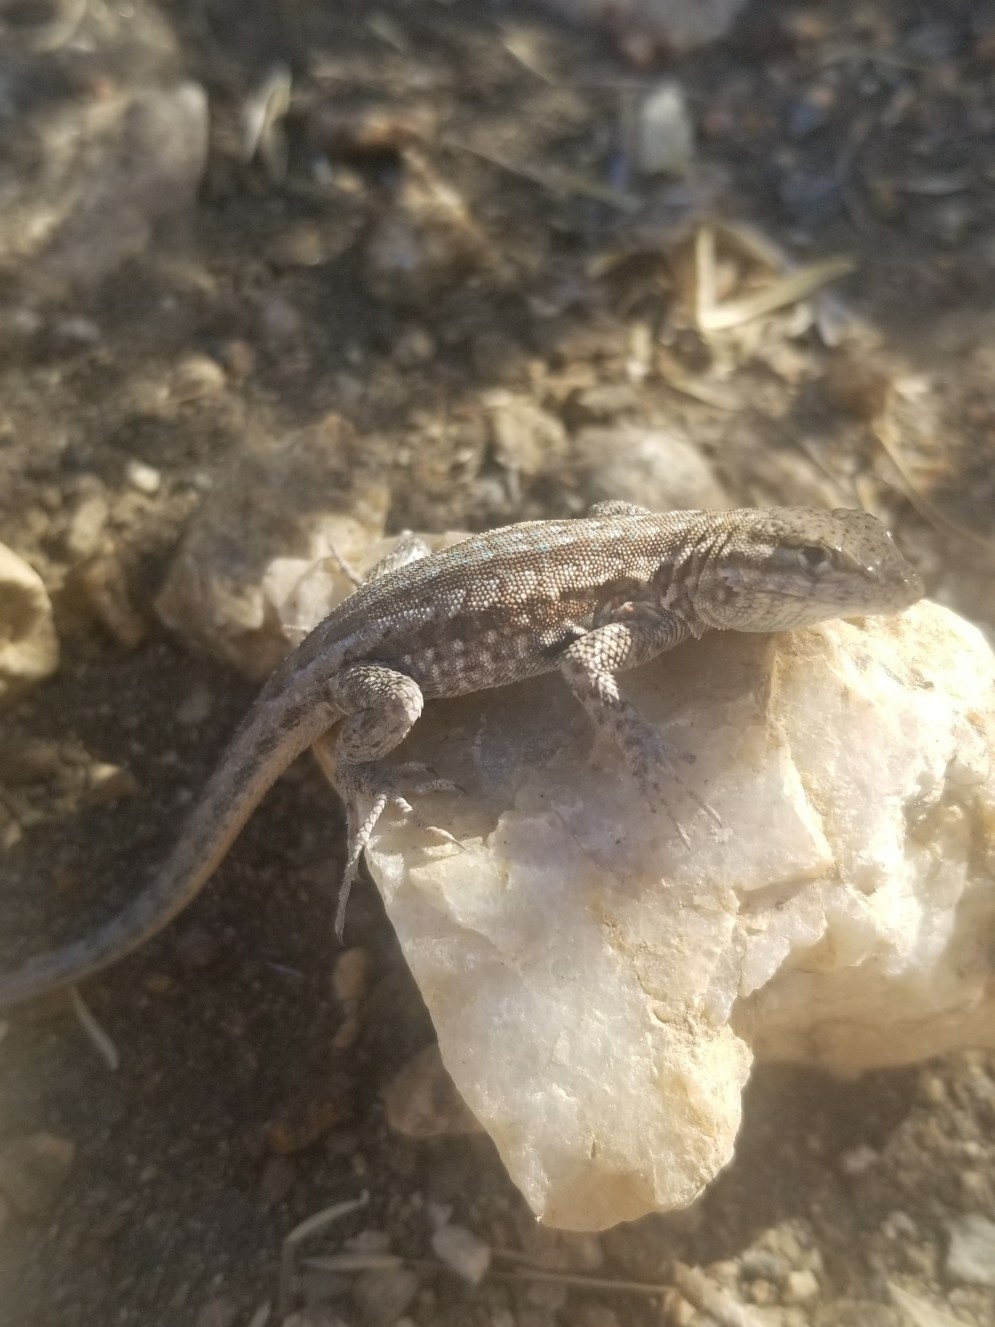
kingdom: Animalia
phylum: Chordata
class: Squamata
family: Phrynosomatidae
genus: Uta
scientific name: Uta stansburiana
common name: Side-blotched lizard
